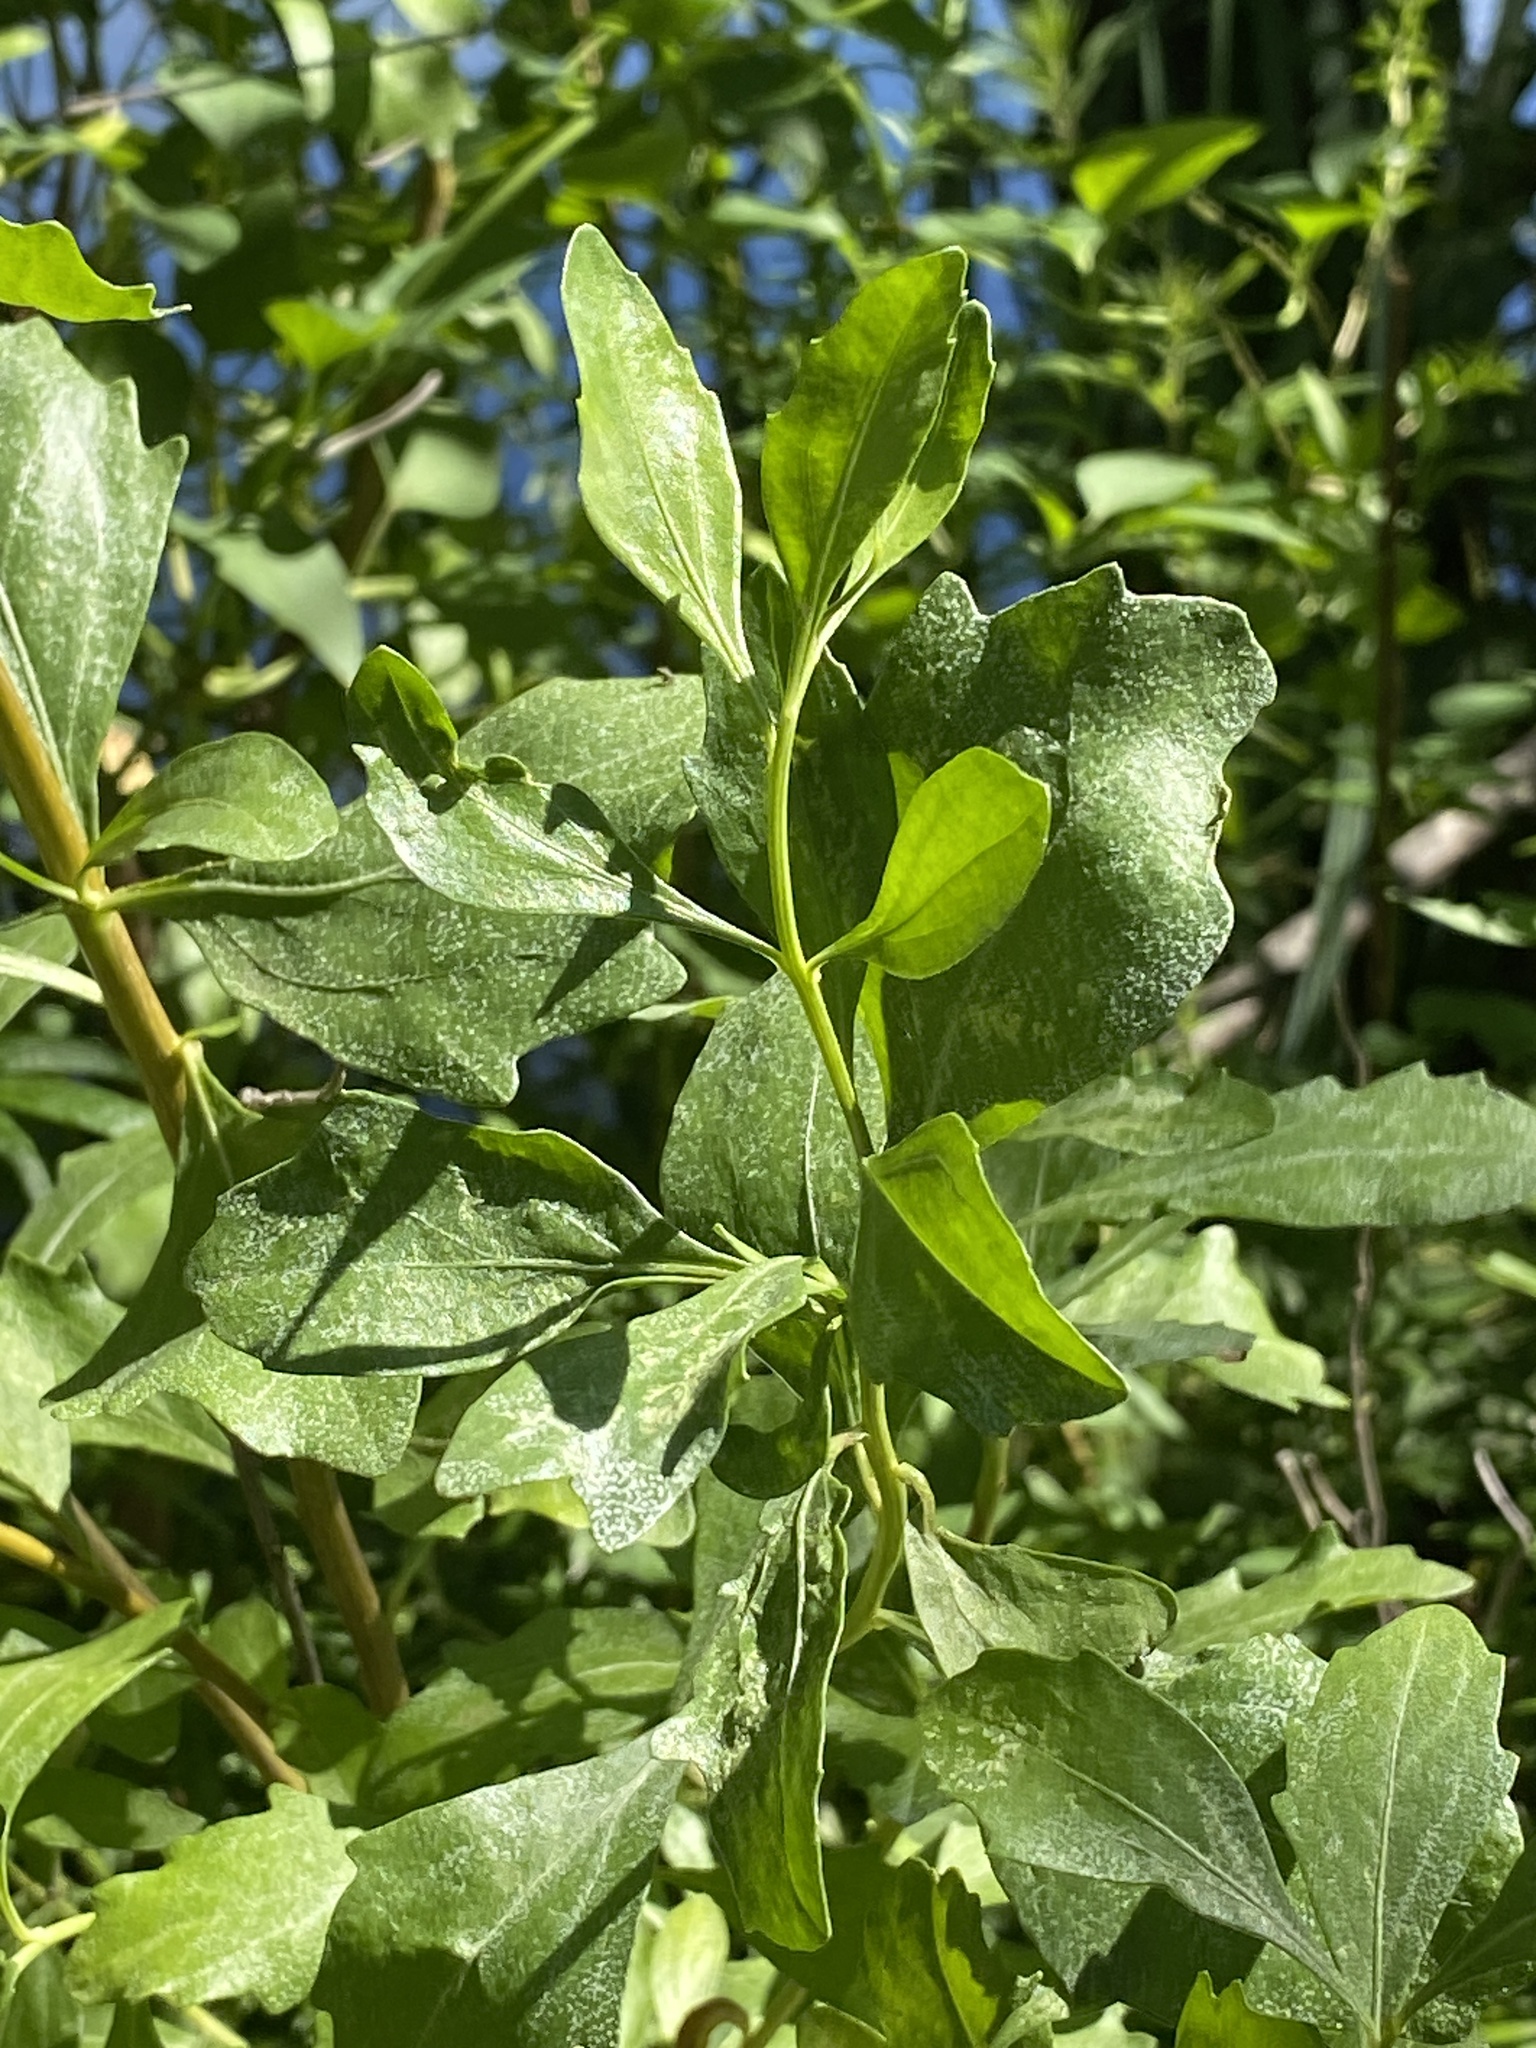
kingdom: Plantae
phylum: Tracheophyta
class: Magnoliopsida
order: Asterales
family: Asteraceae
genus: Baccharis
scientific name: Baccharis halimifolia
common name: Eastern baccharis
